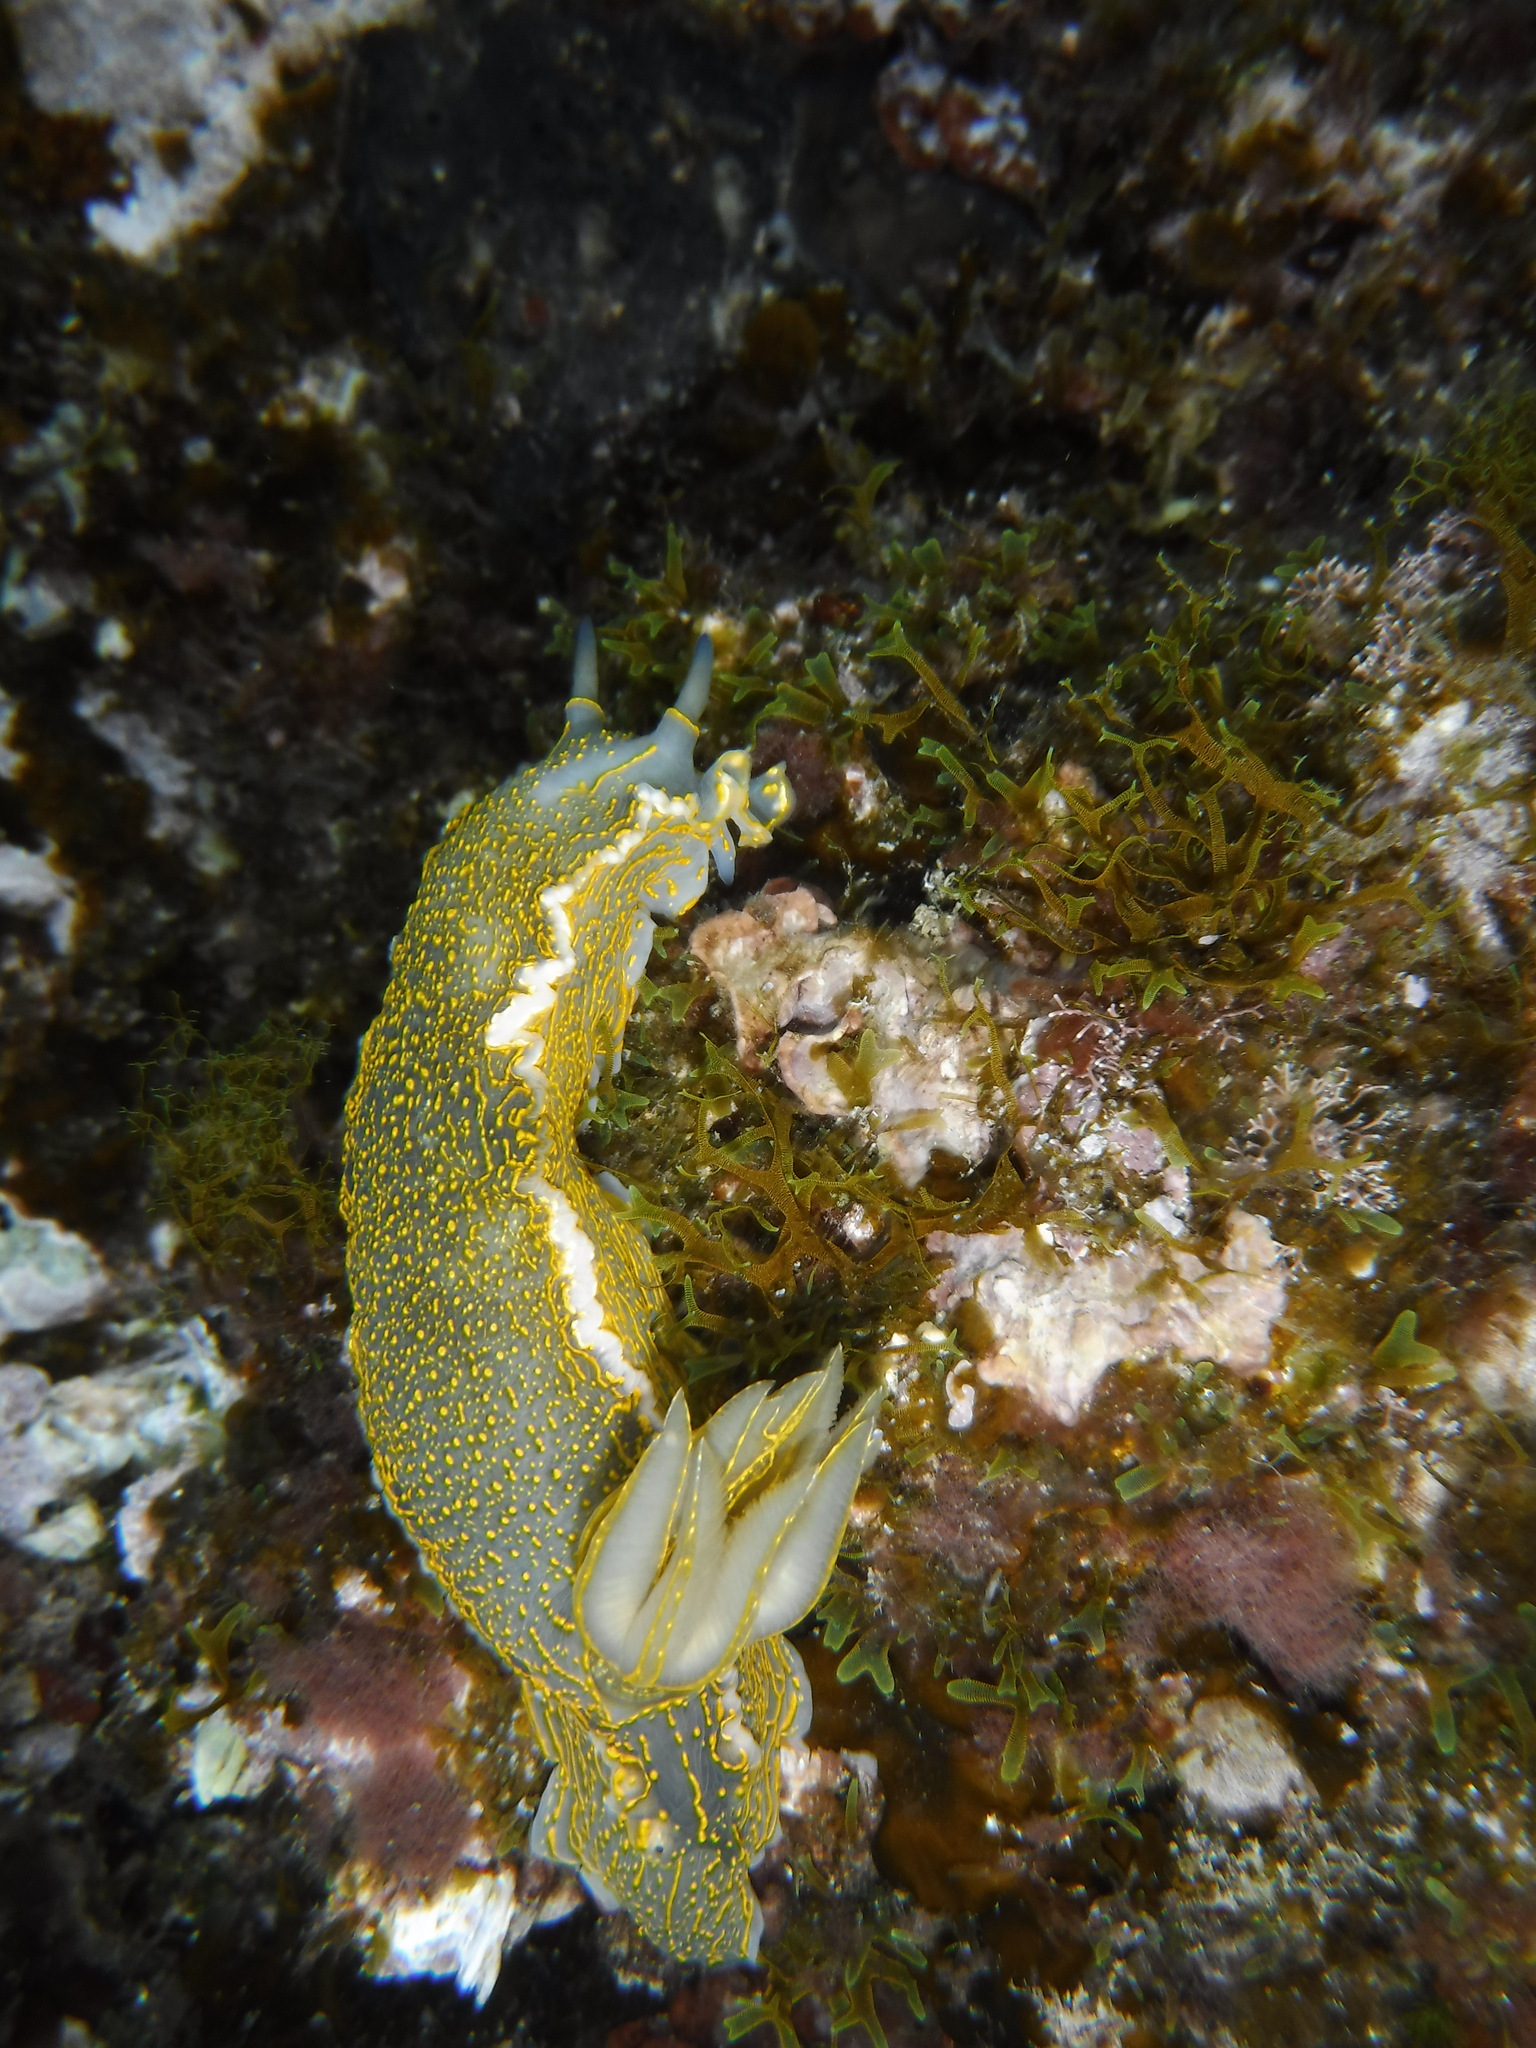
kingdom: Animalia
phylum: Mollusca
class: Gastropoda
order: Nudibranchia
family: Chromodorididae
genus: Felimare
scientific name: Felimare picta
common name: Giant doris
